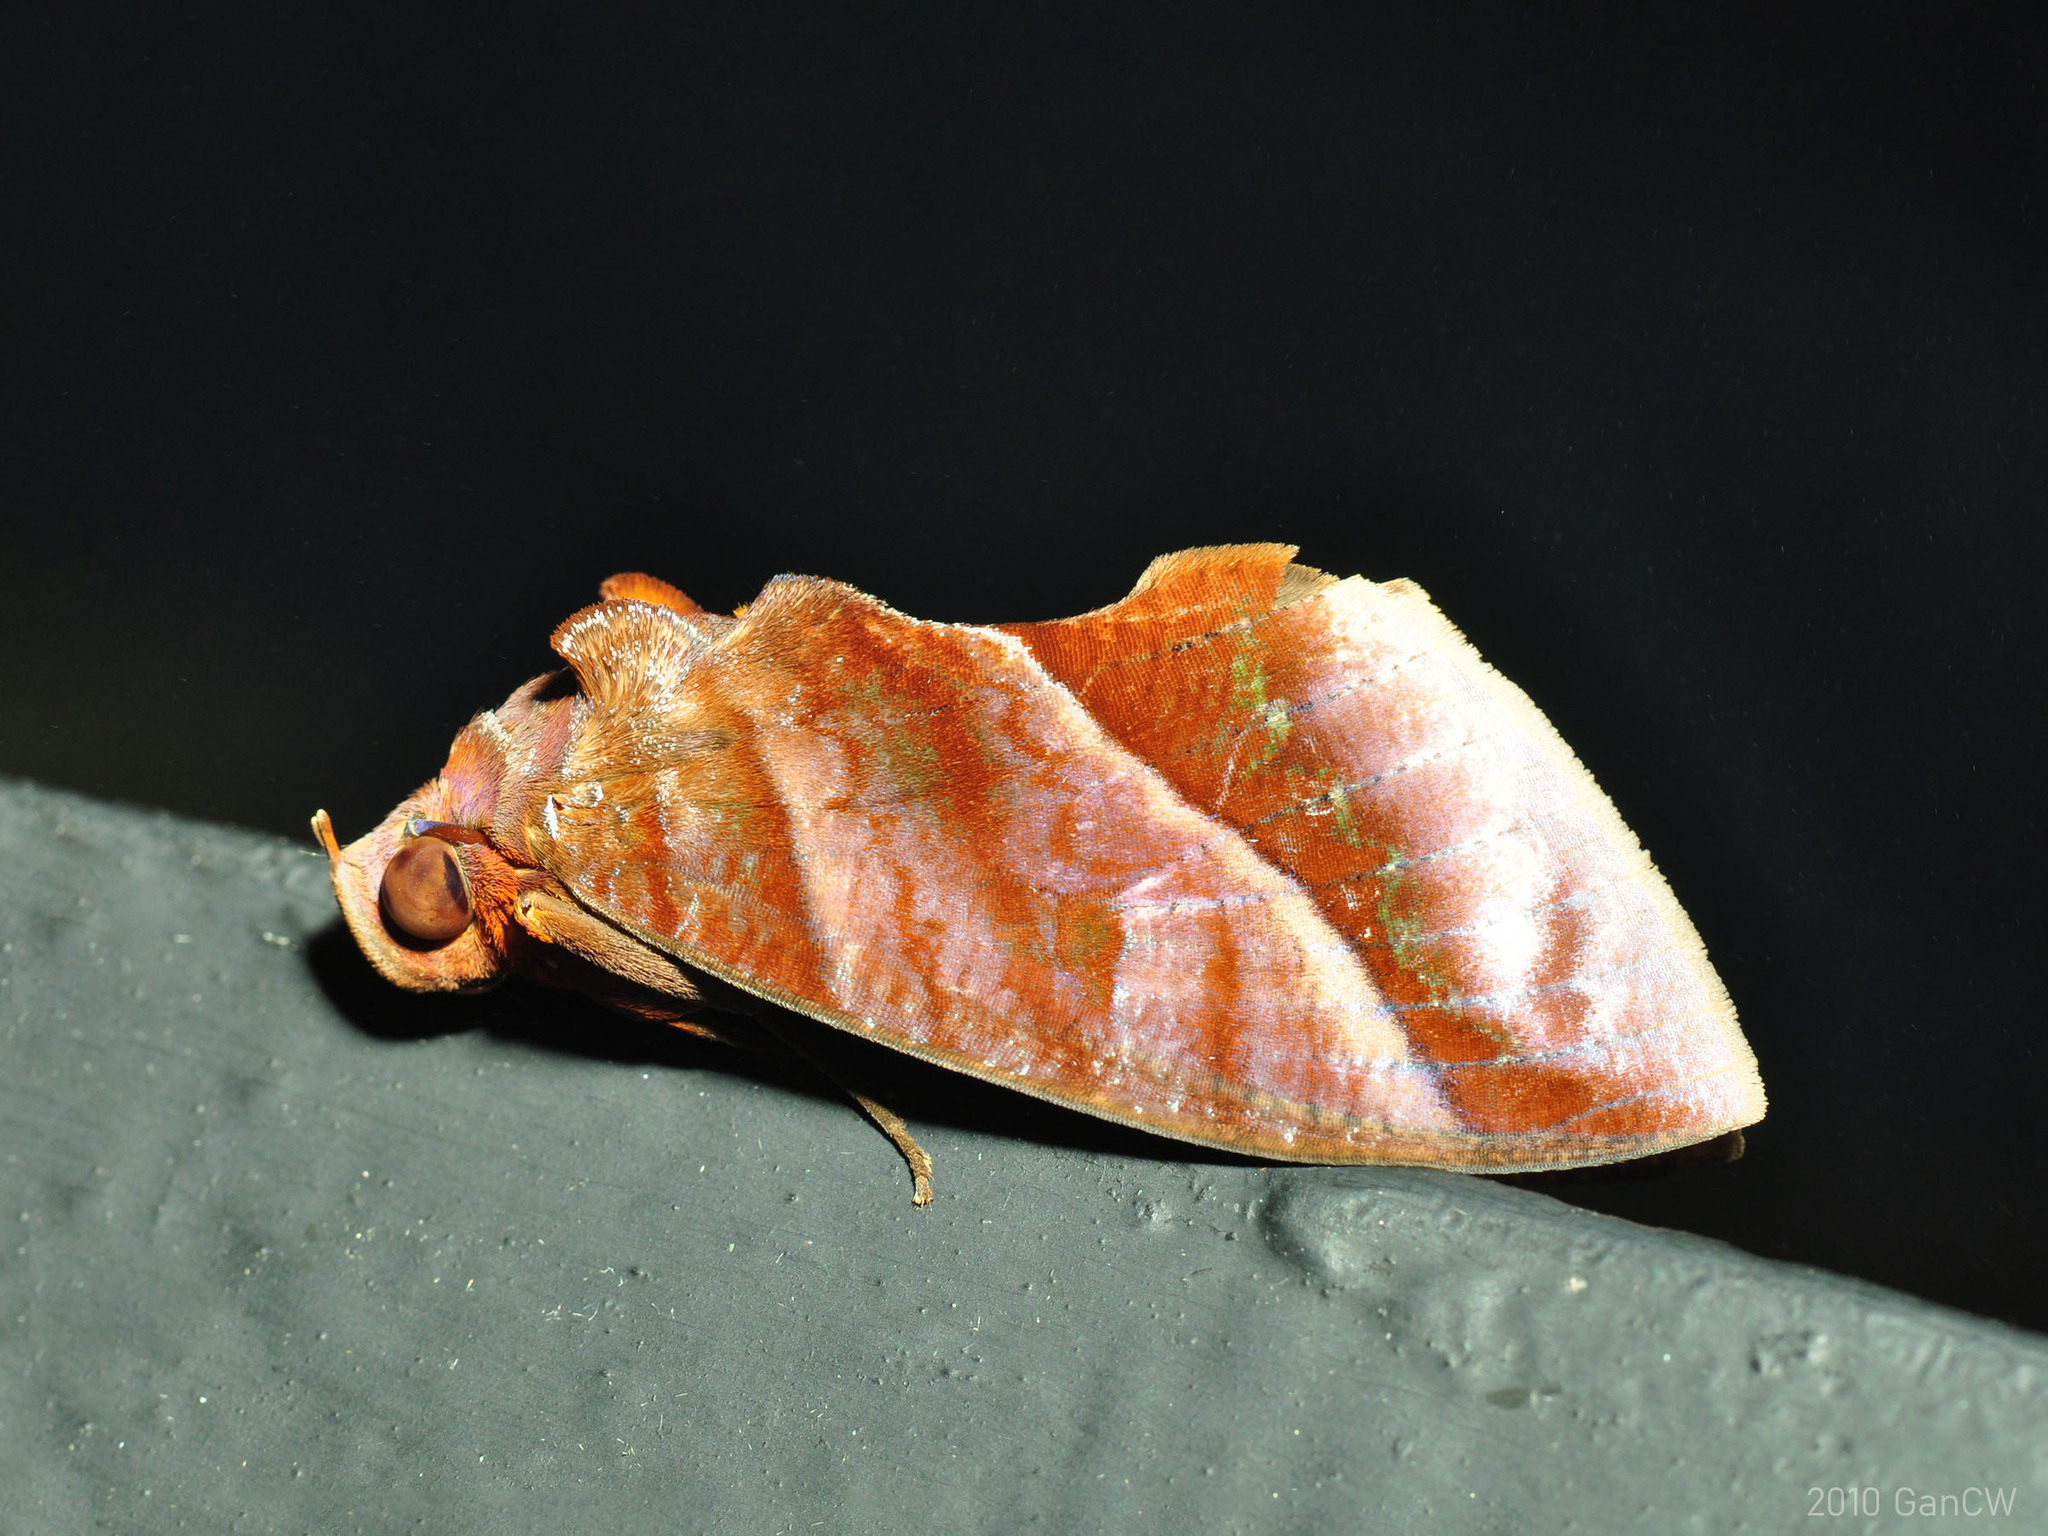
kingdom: Animalia
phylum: Arthropoda
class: Insecta
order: Lepidoptera
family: Erebidae
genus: Eudocima
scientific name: Eudocima homaena
